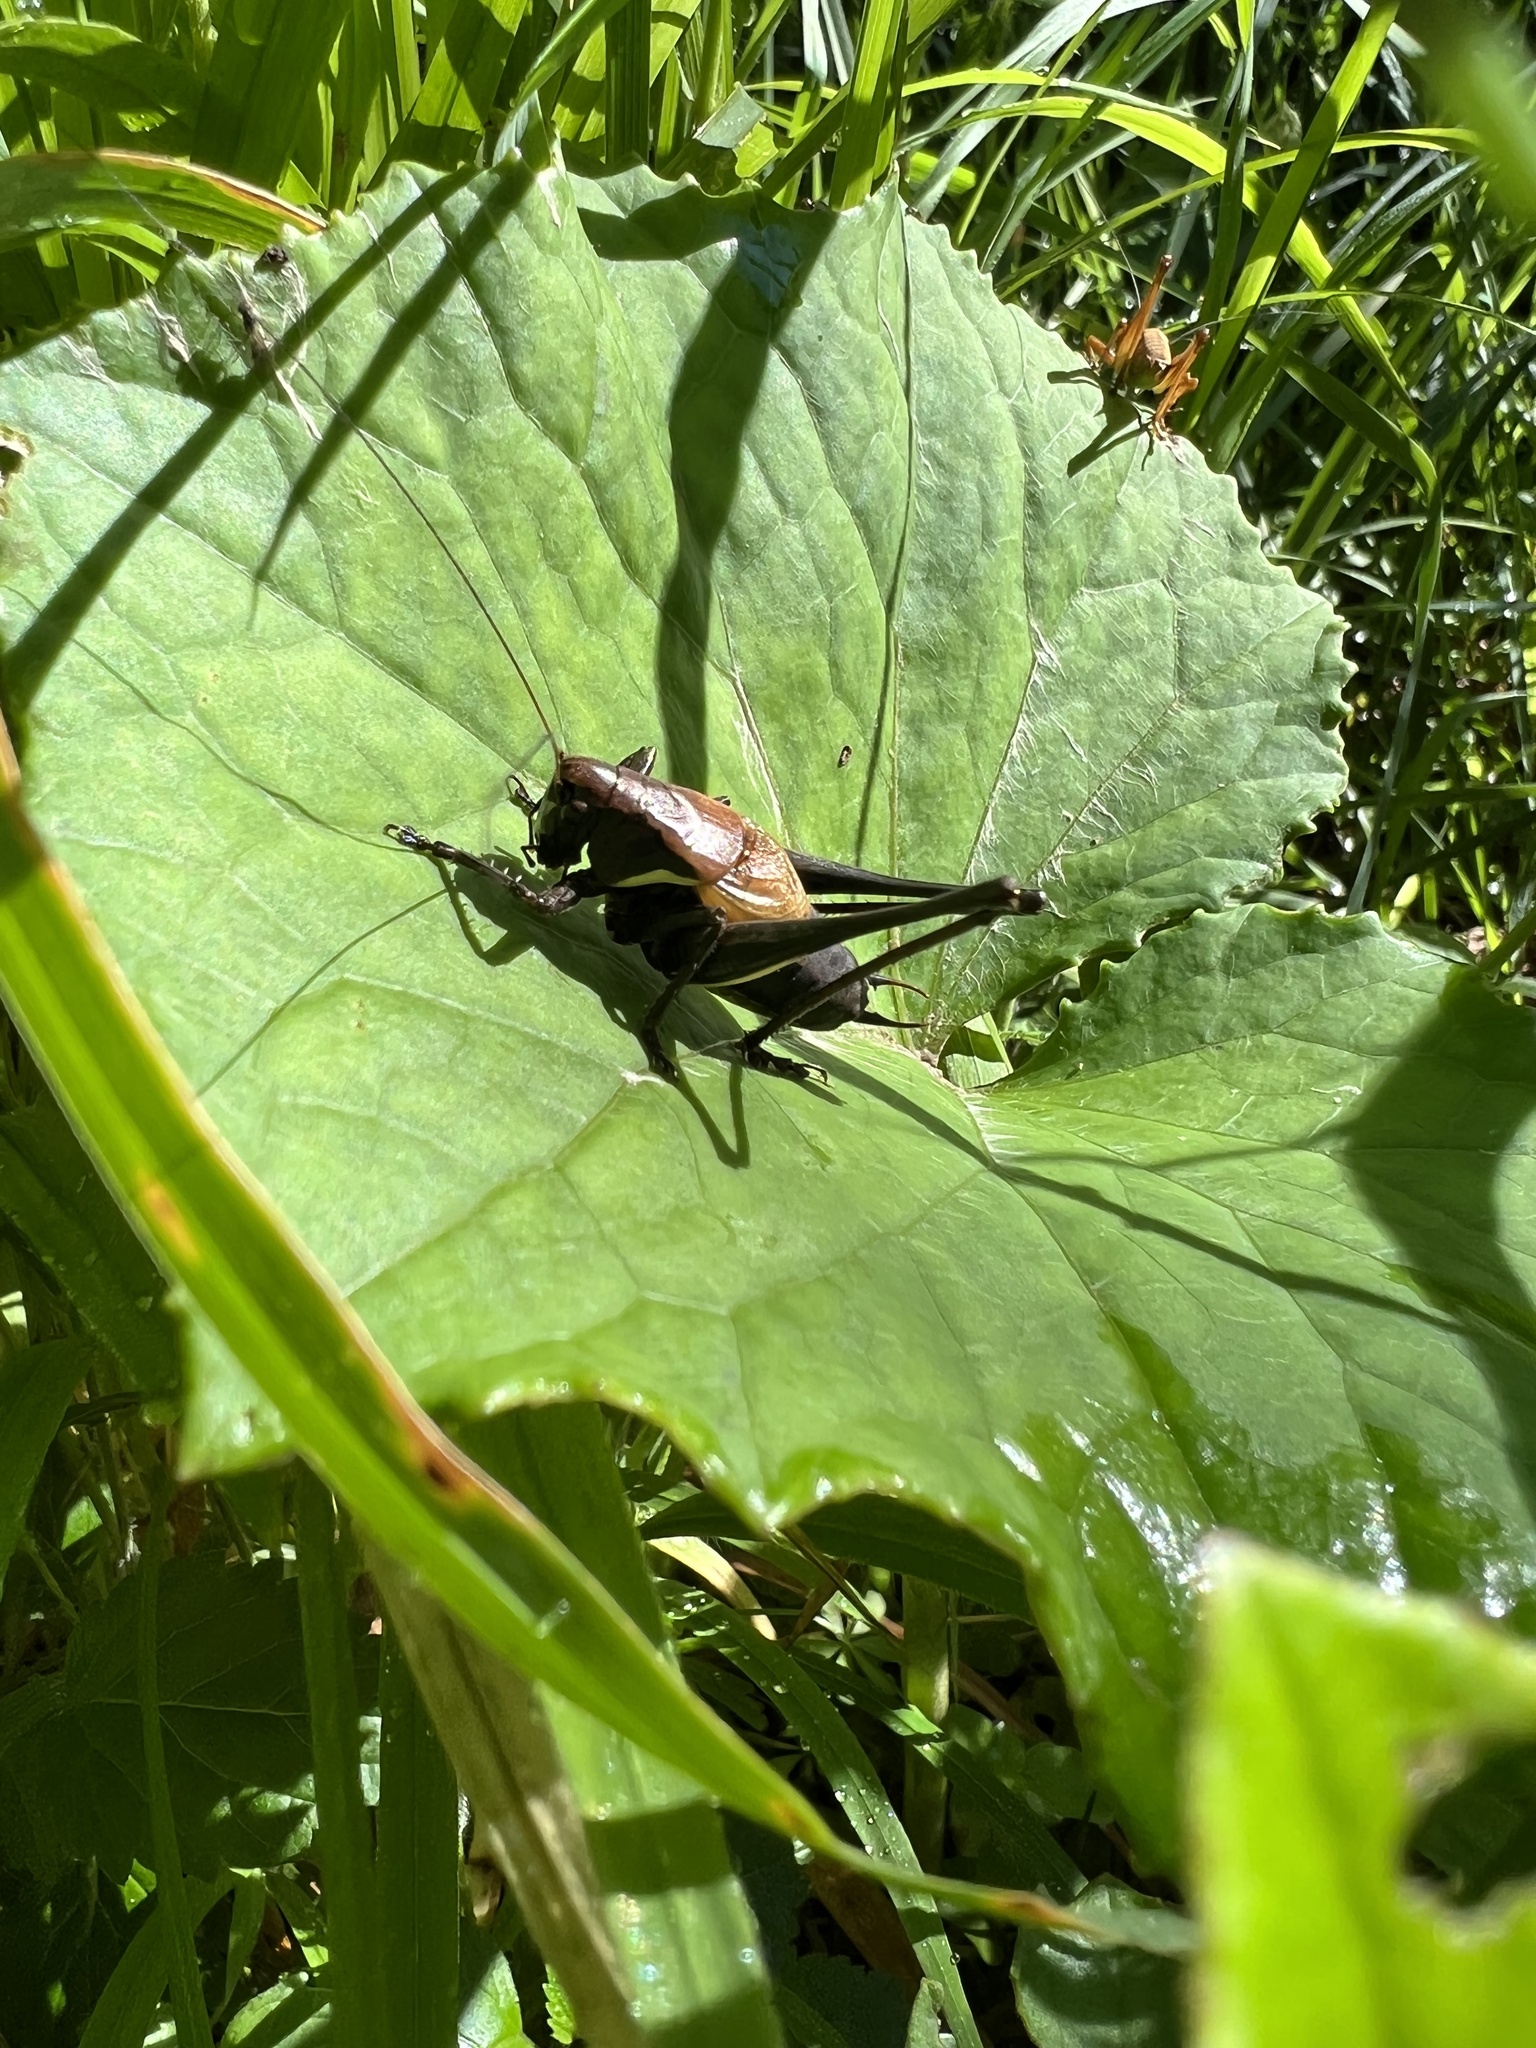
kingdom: Animalia
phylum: Arthropoda
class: Insecta
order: Orthoptera
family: Tettigoniidae
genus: Pholidoptera
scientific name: Pholidoptera aptera
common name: Alpine dark bush-cricket
